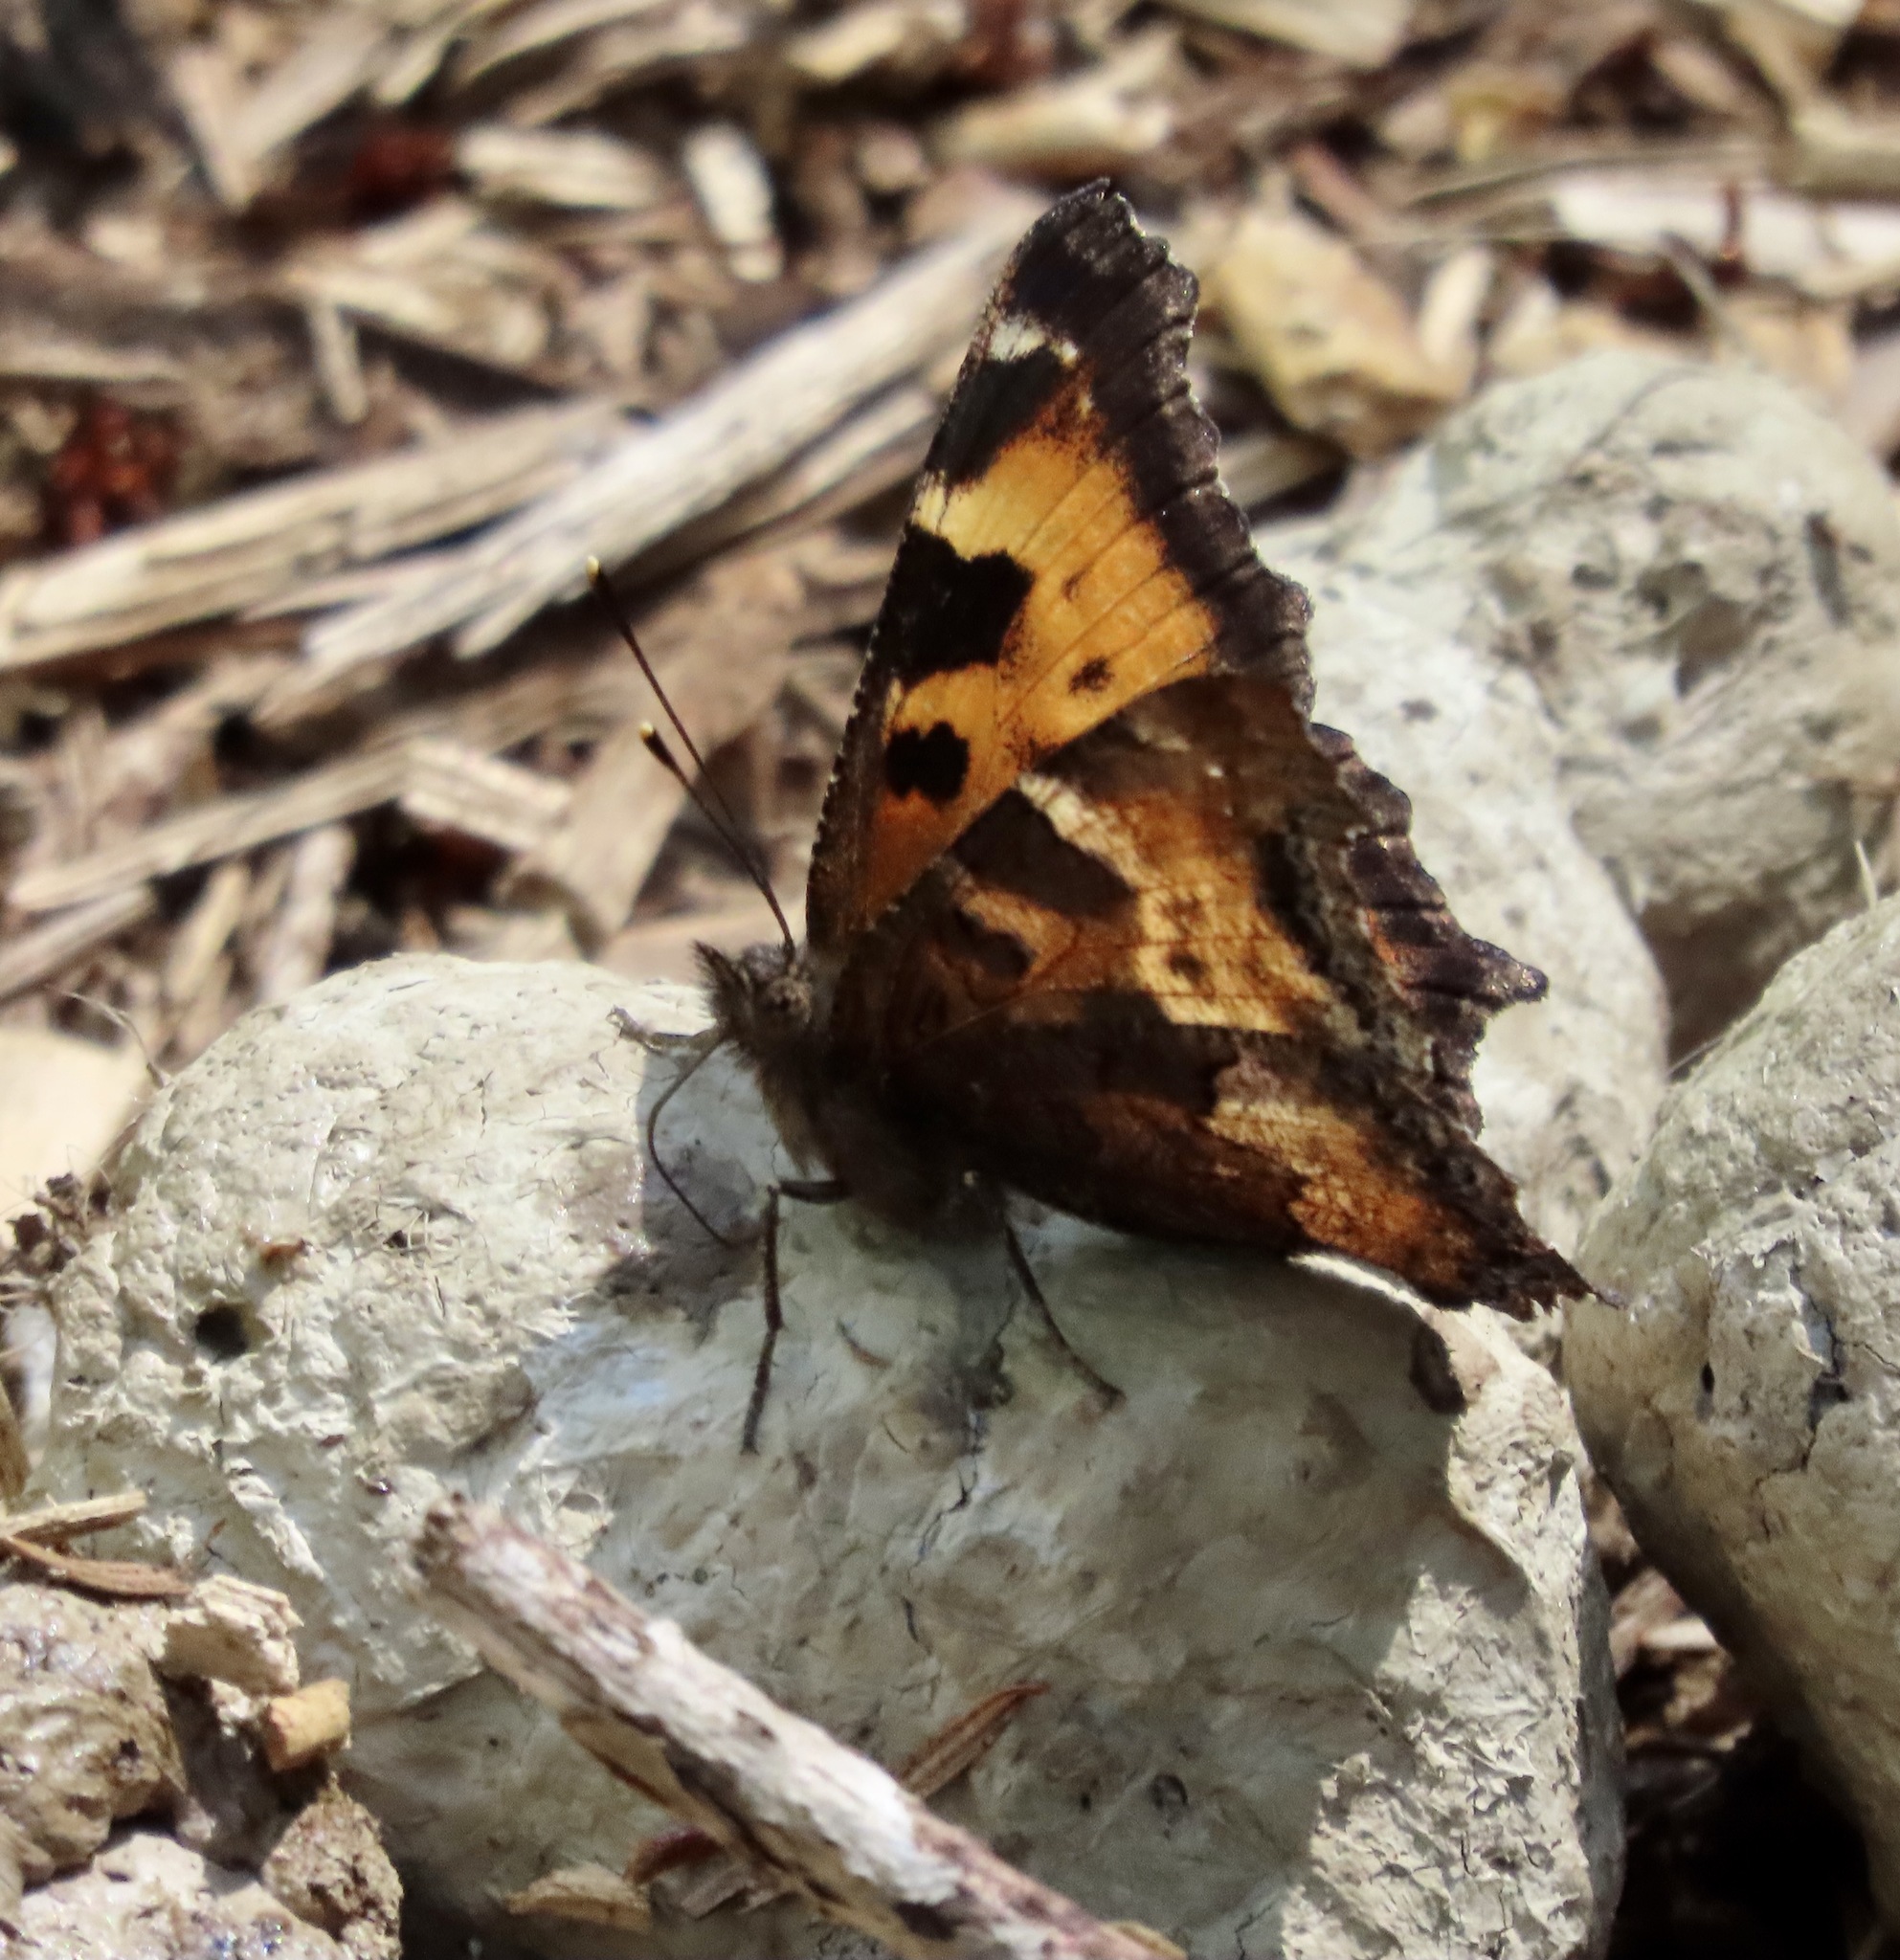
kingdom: Animalia
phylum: Arthropoda
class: Insecta
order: Lepidoptera
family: Nymphalidae
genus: Nymphalis
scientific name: Nymphalis californica
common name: California tortoiseshell
